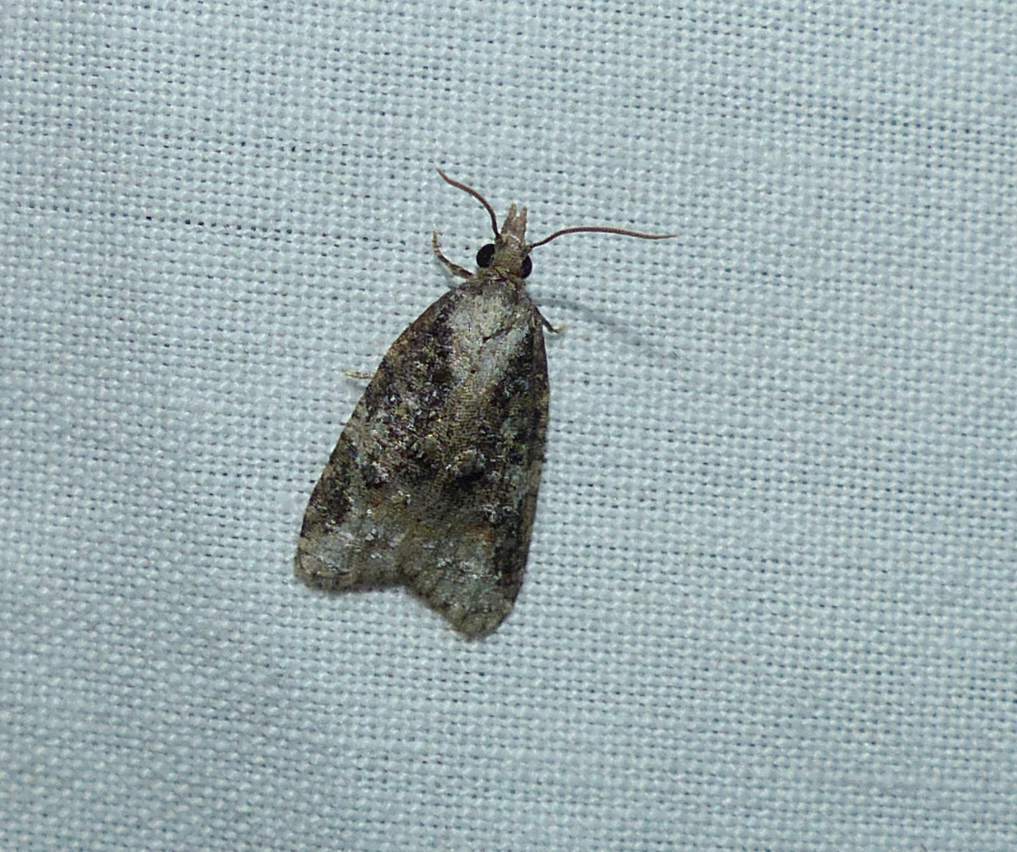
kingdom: Animalia
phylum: Arthropoda
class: Insecta
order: Lepidoptera
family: Tortricidae
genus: Platynota
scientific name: Platynota exasperatana
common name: Exasperating platynota moth
